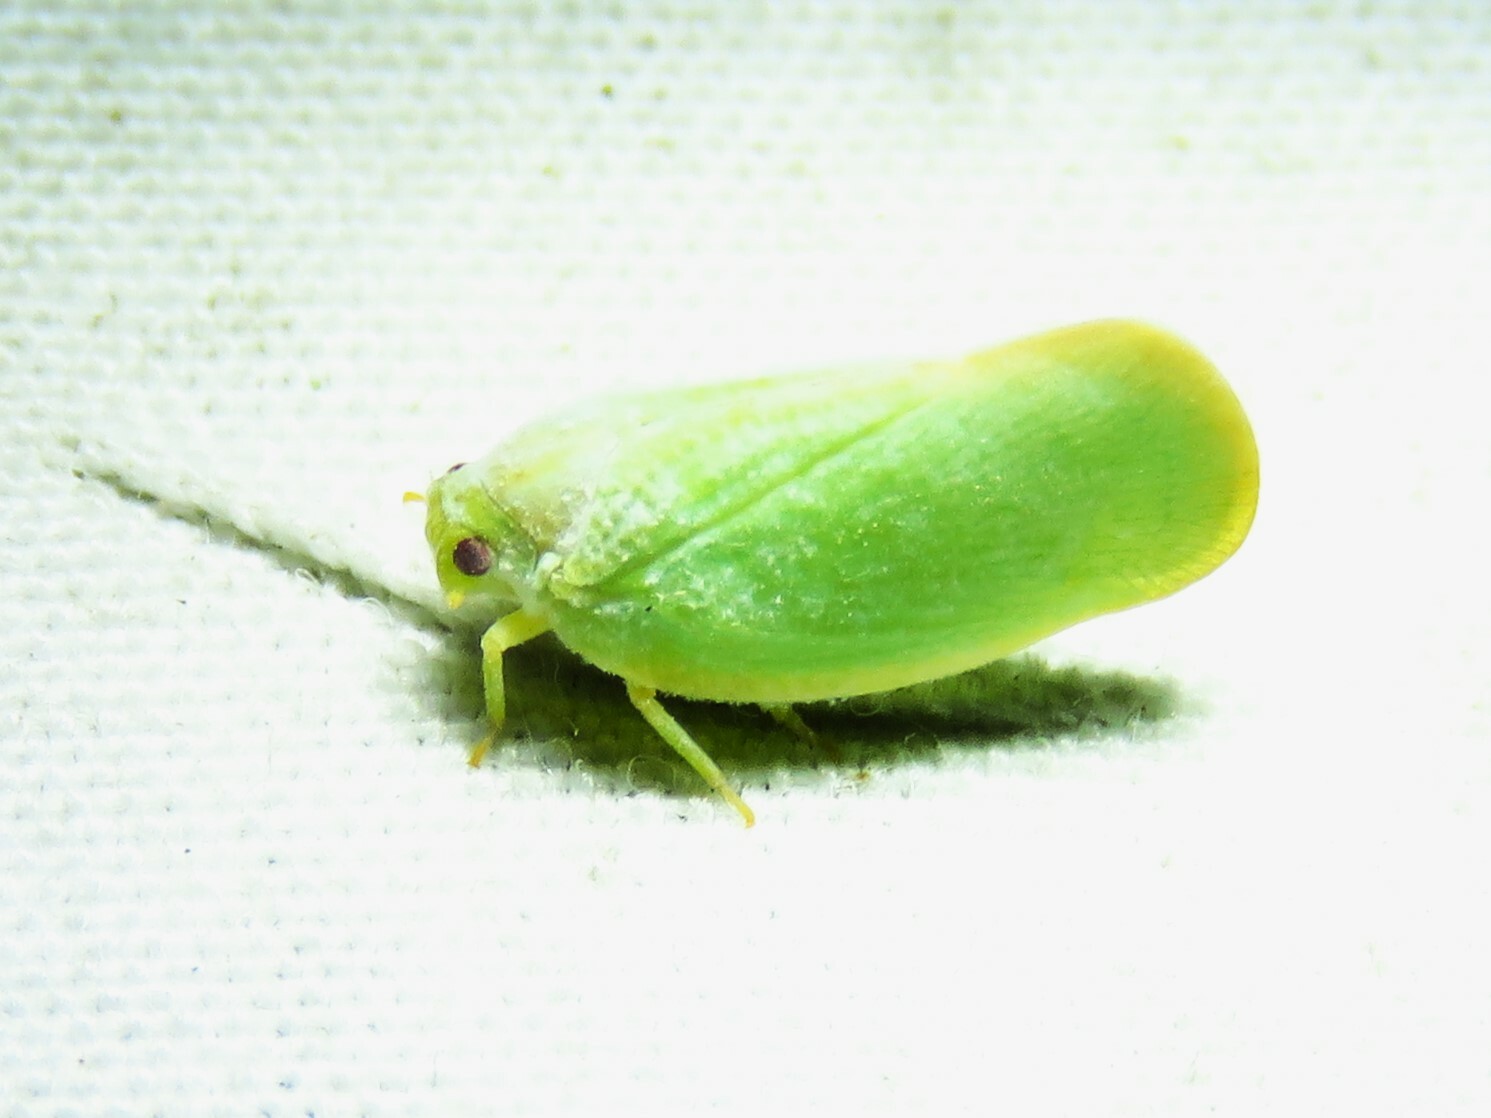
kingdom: Animalia
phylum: Arthropoda
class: Insecta
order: Hemiptera
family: Flatidae
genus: Ormenoides
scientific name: Ormenoides venusta
